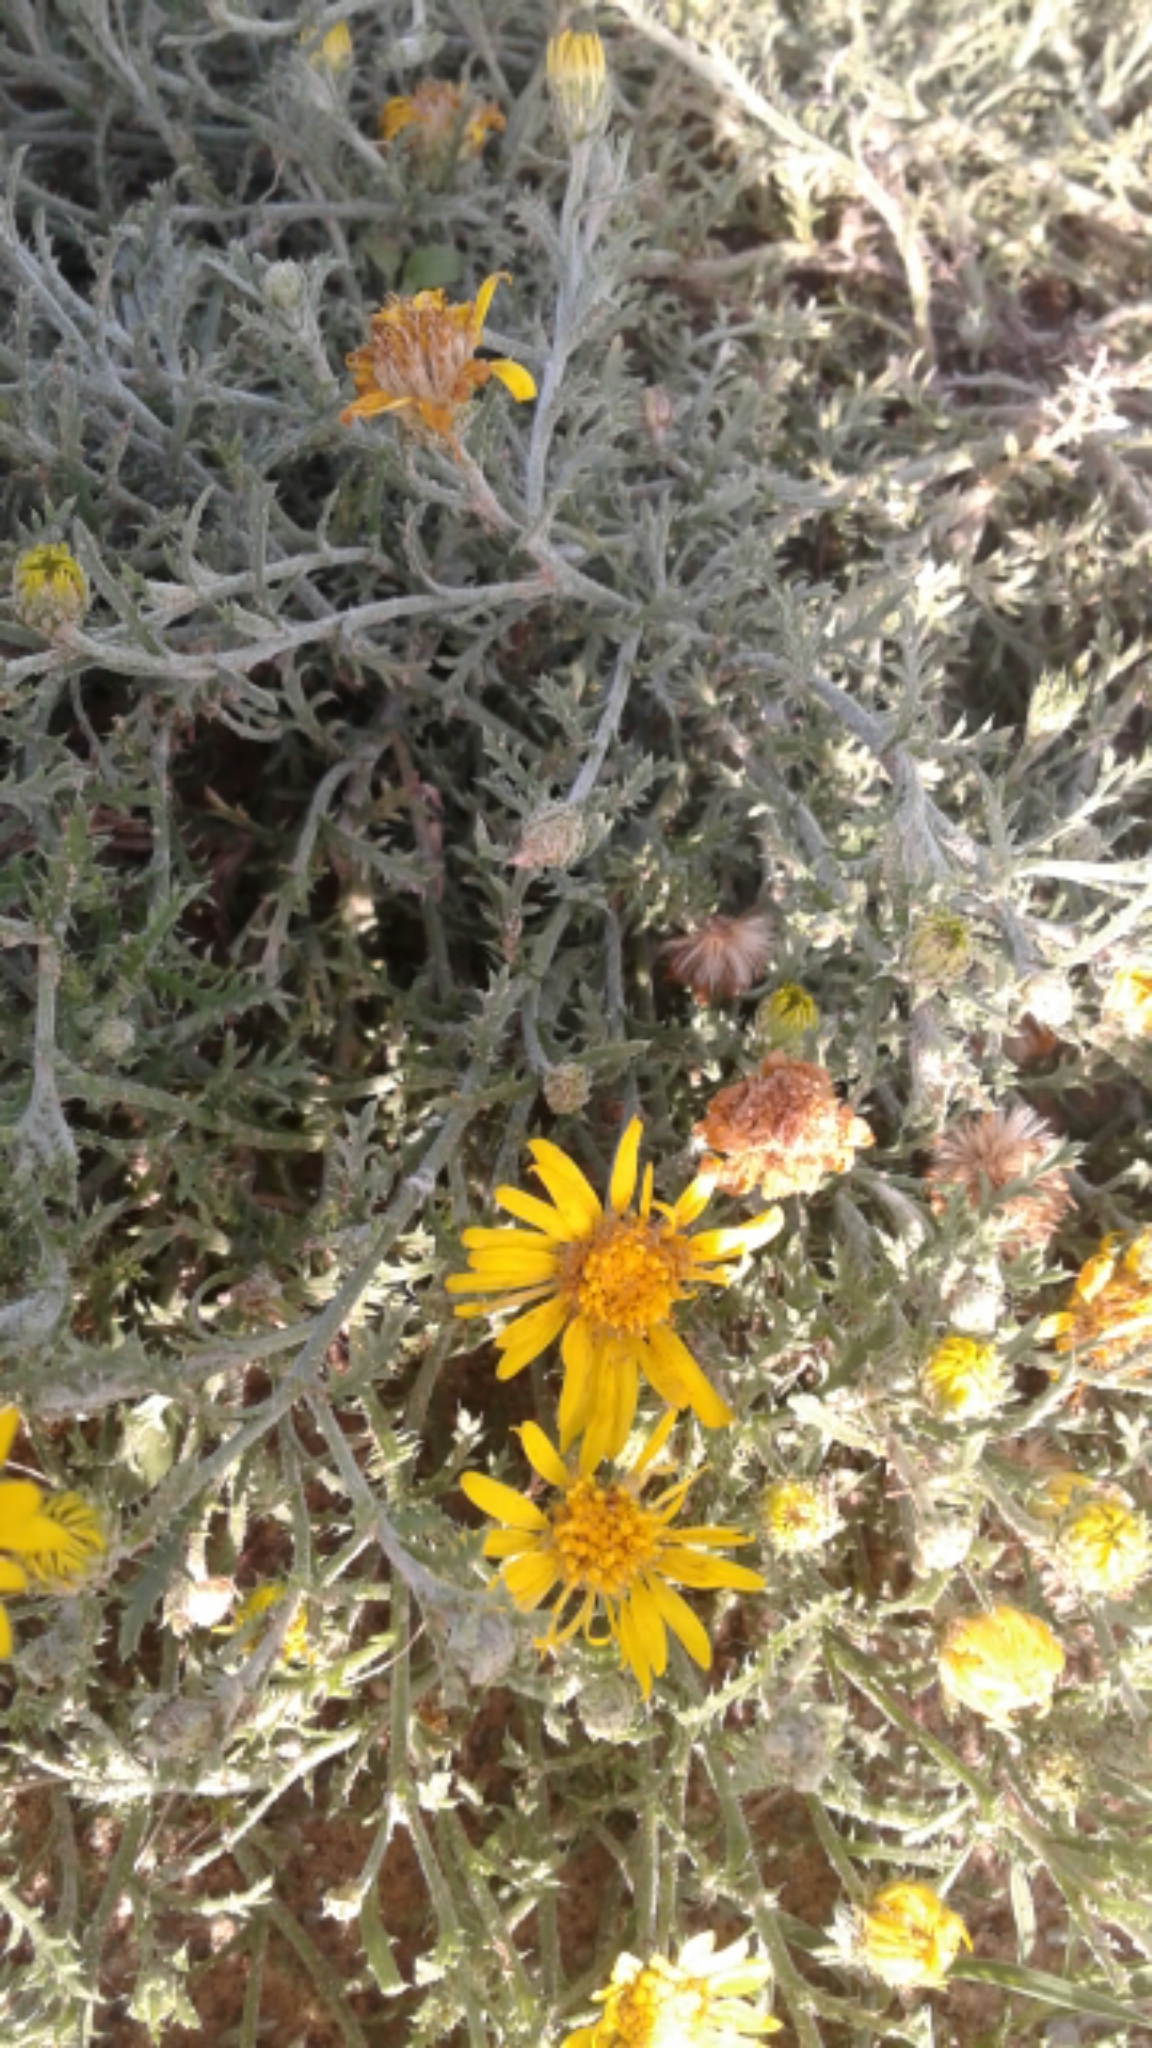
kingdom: Plantae
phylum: Tracheophyta
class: Magnoliopsida
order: Asterales
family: Asteraceae
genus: Xanthisma
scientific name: Xanthisma spinulosum
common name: Spiny goldenweed
